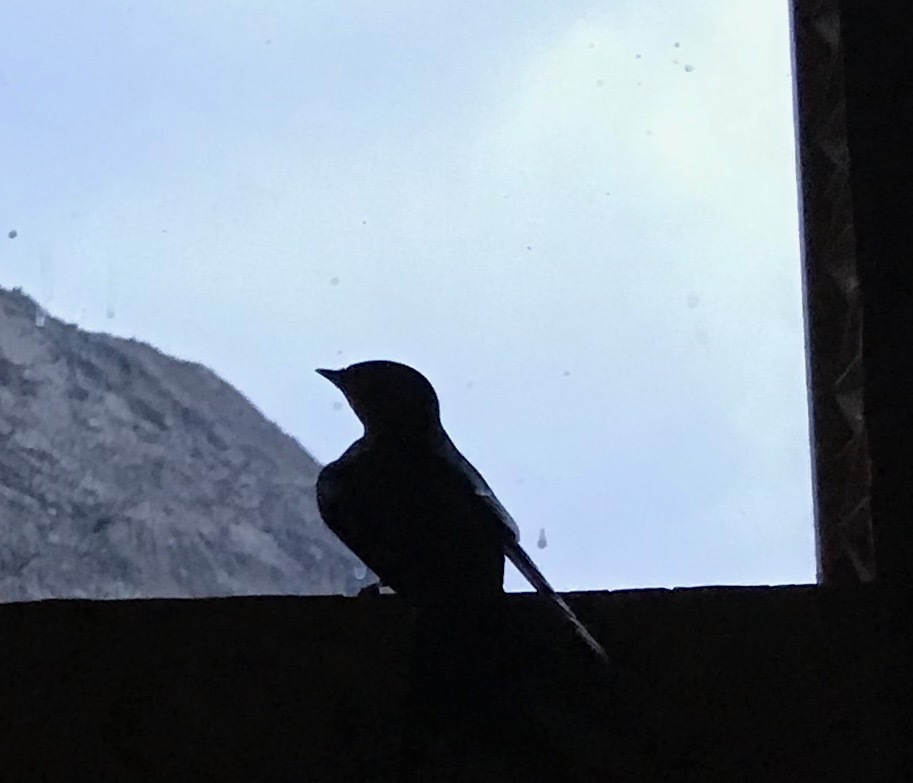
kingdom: Animalia
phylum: Chordata
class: Aves
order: Passeriformes
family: Hirundinidae
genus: Hirundo
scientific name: Hirundo rustica
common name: Barn swallow
